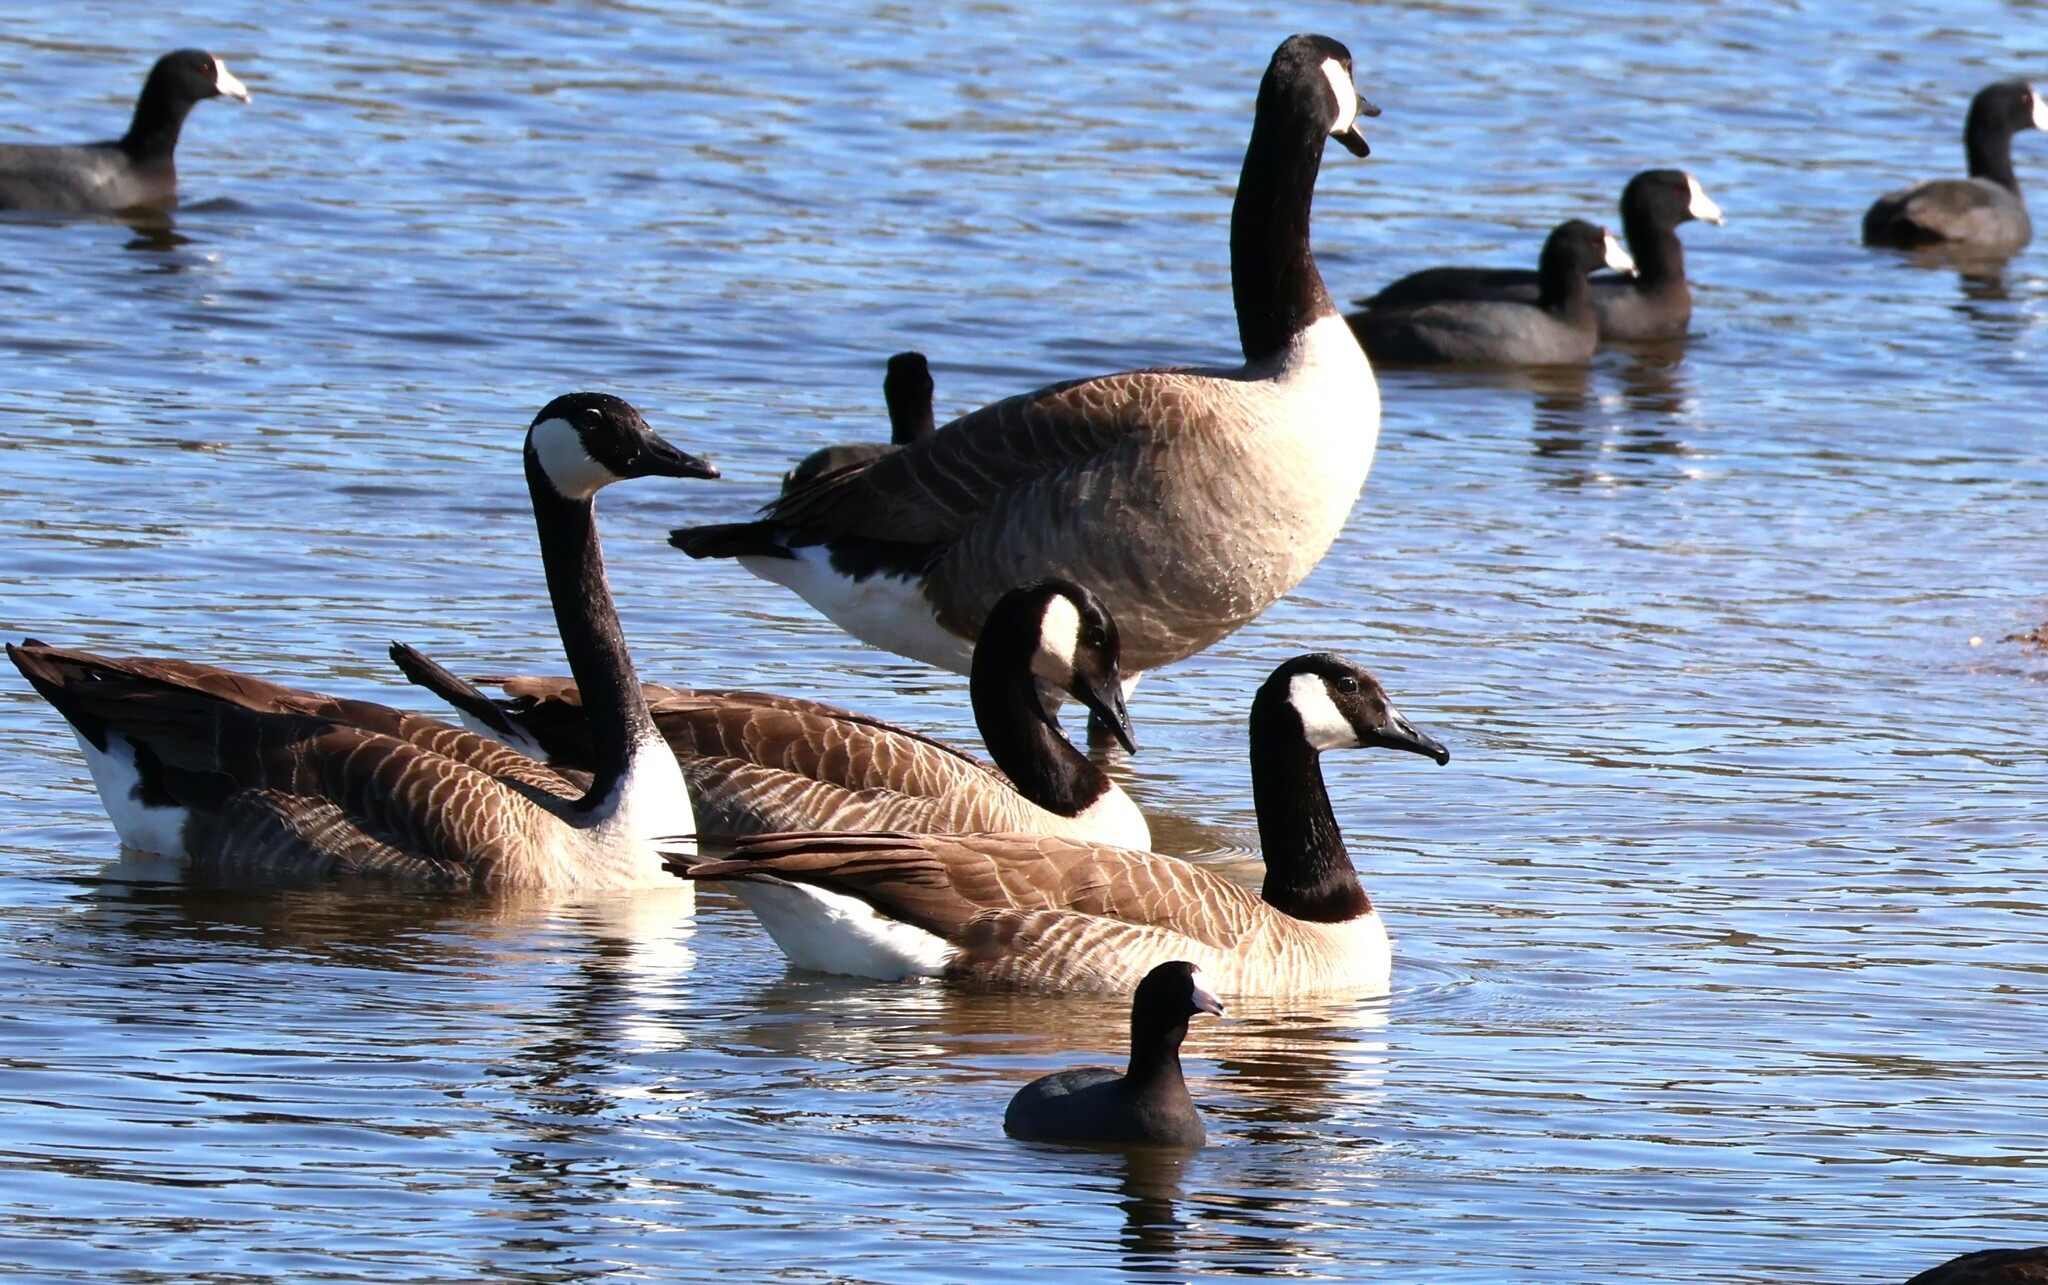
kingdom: Animalia
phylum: Chordata
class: Aves
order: Anseriformes
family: Anatidae
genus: Branta
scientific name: Branta canadensis
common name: Canada goose
